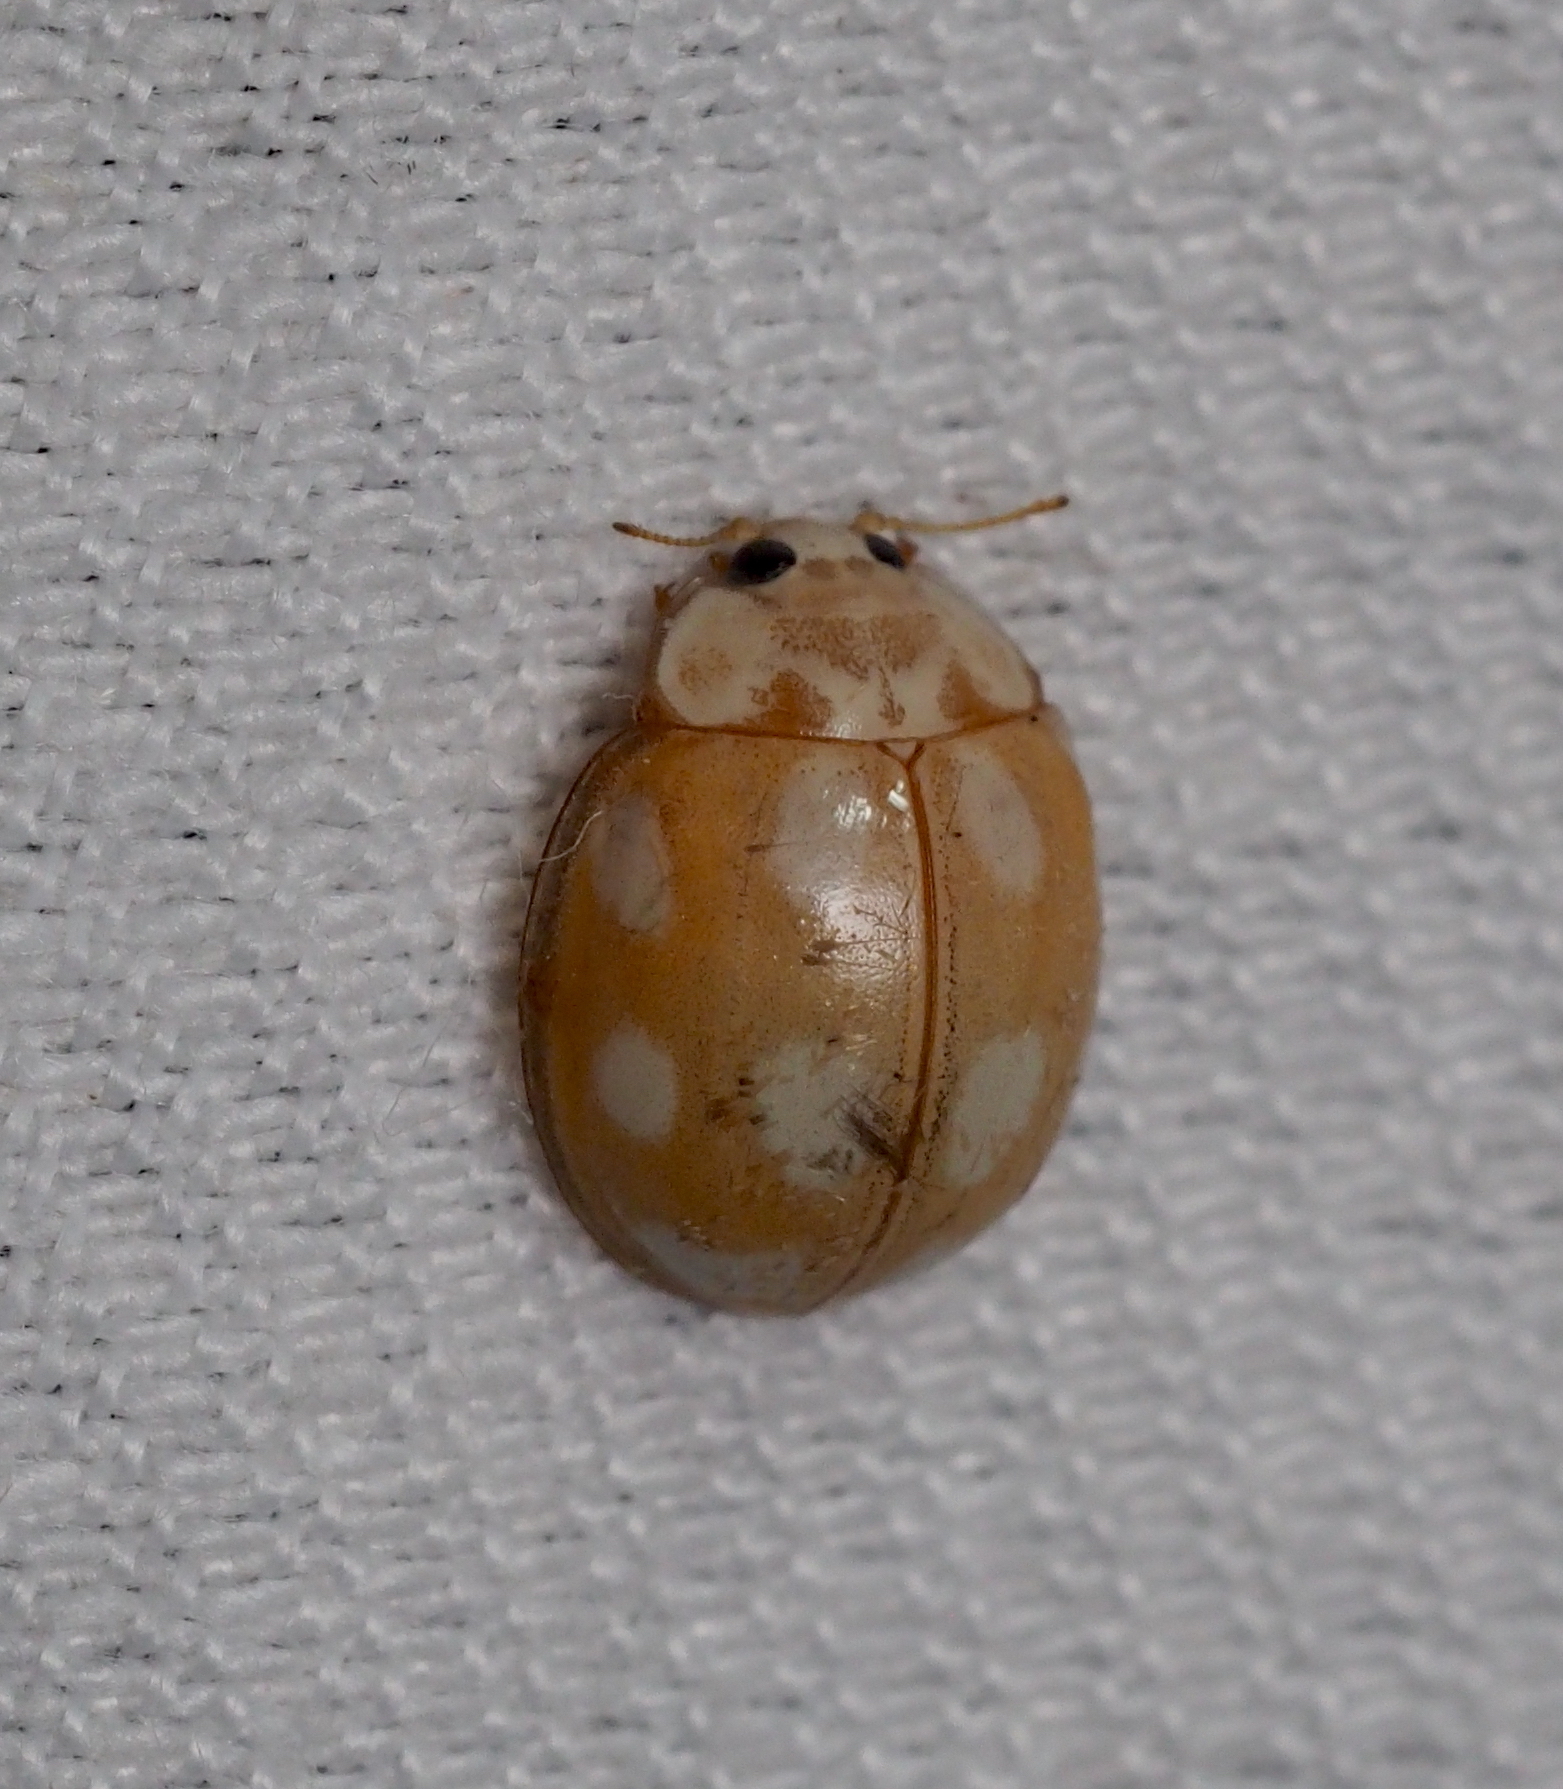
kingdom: Animalia
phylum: Arthropoda
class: Insecta
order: Coleoptera
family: Coccinellidae
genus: Calvia
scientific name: Calvia decemguttata
